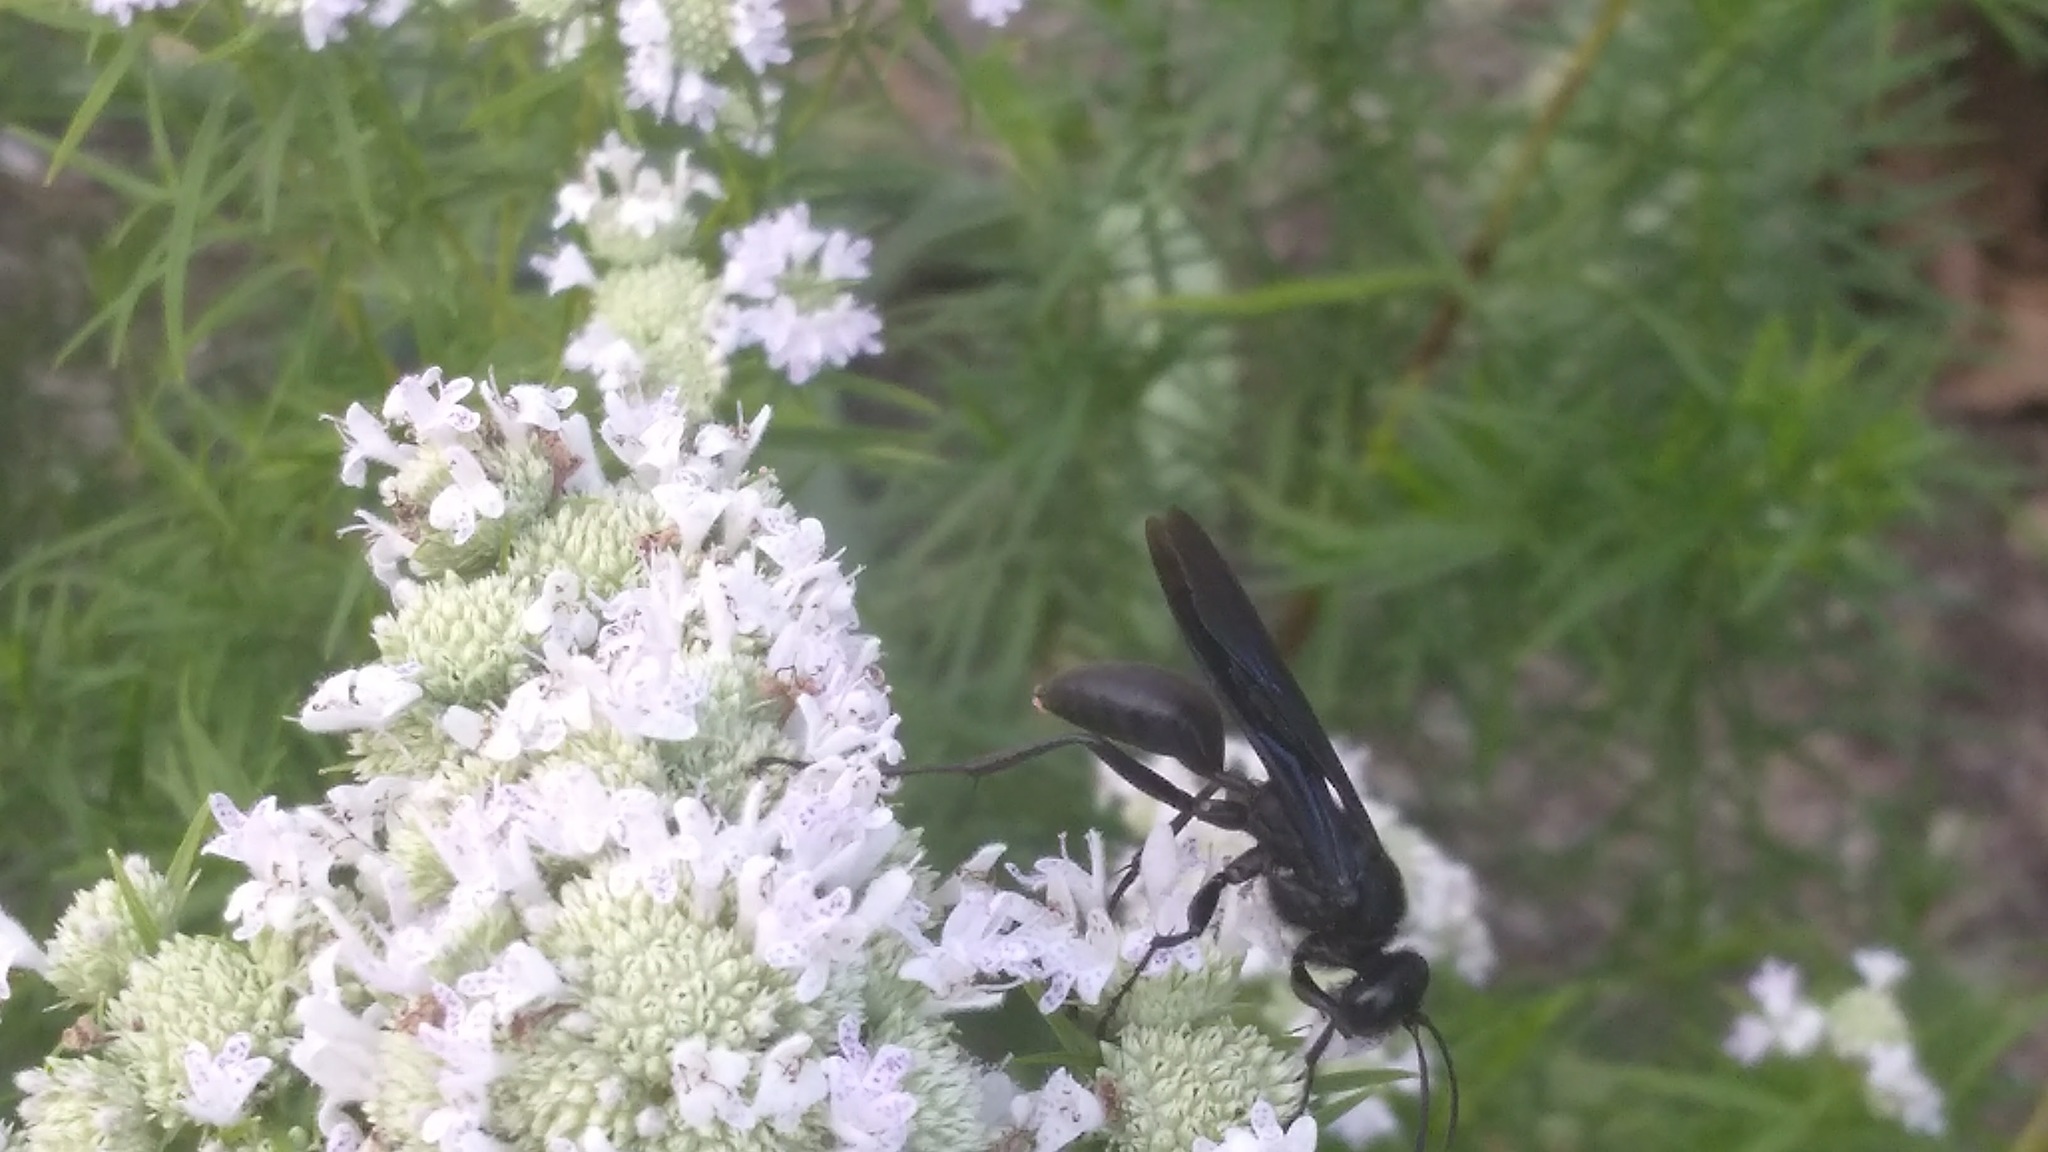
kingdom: Animalia
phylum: Arthropoda
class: Insecta
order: Hymenoptera
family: Sphecidae
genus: Sphex
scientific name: Sphex pensylvanicus
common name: Great black digger wasp
